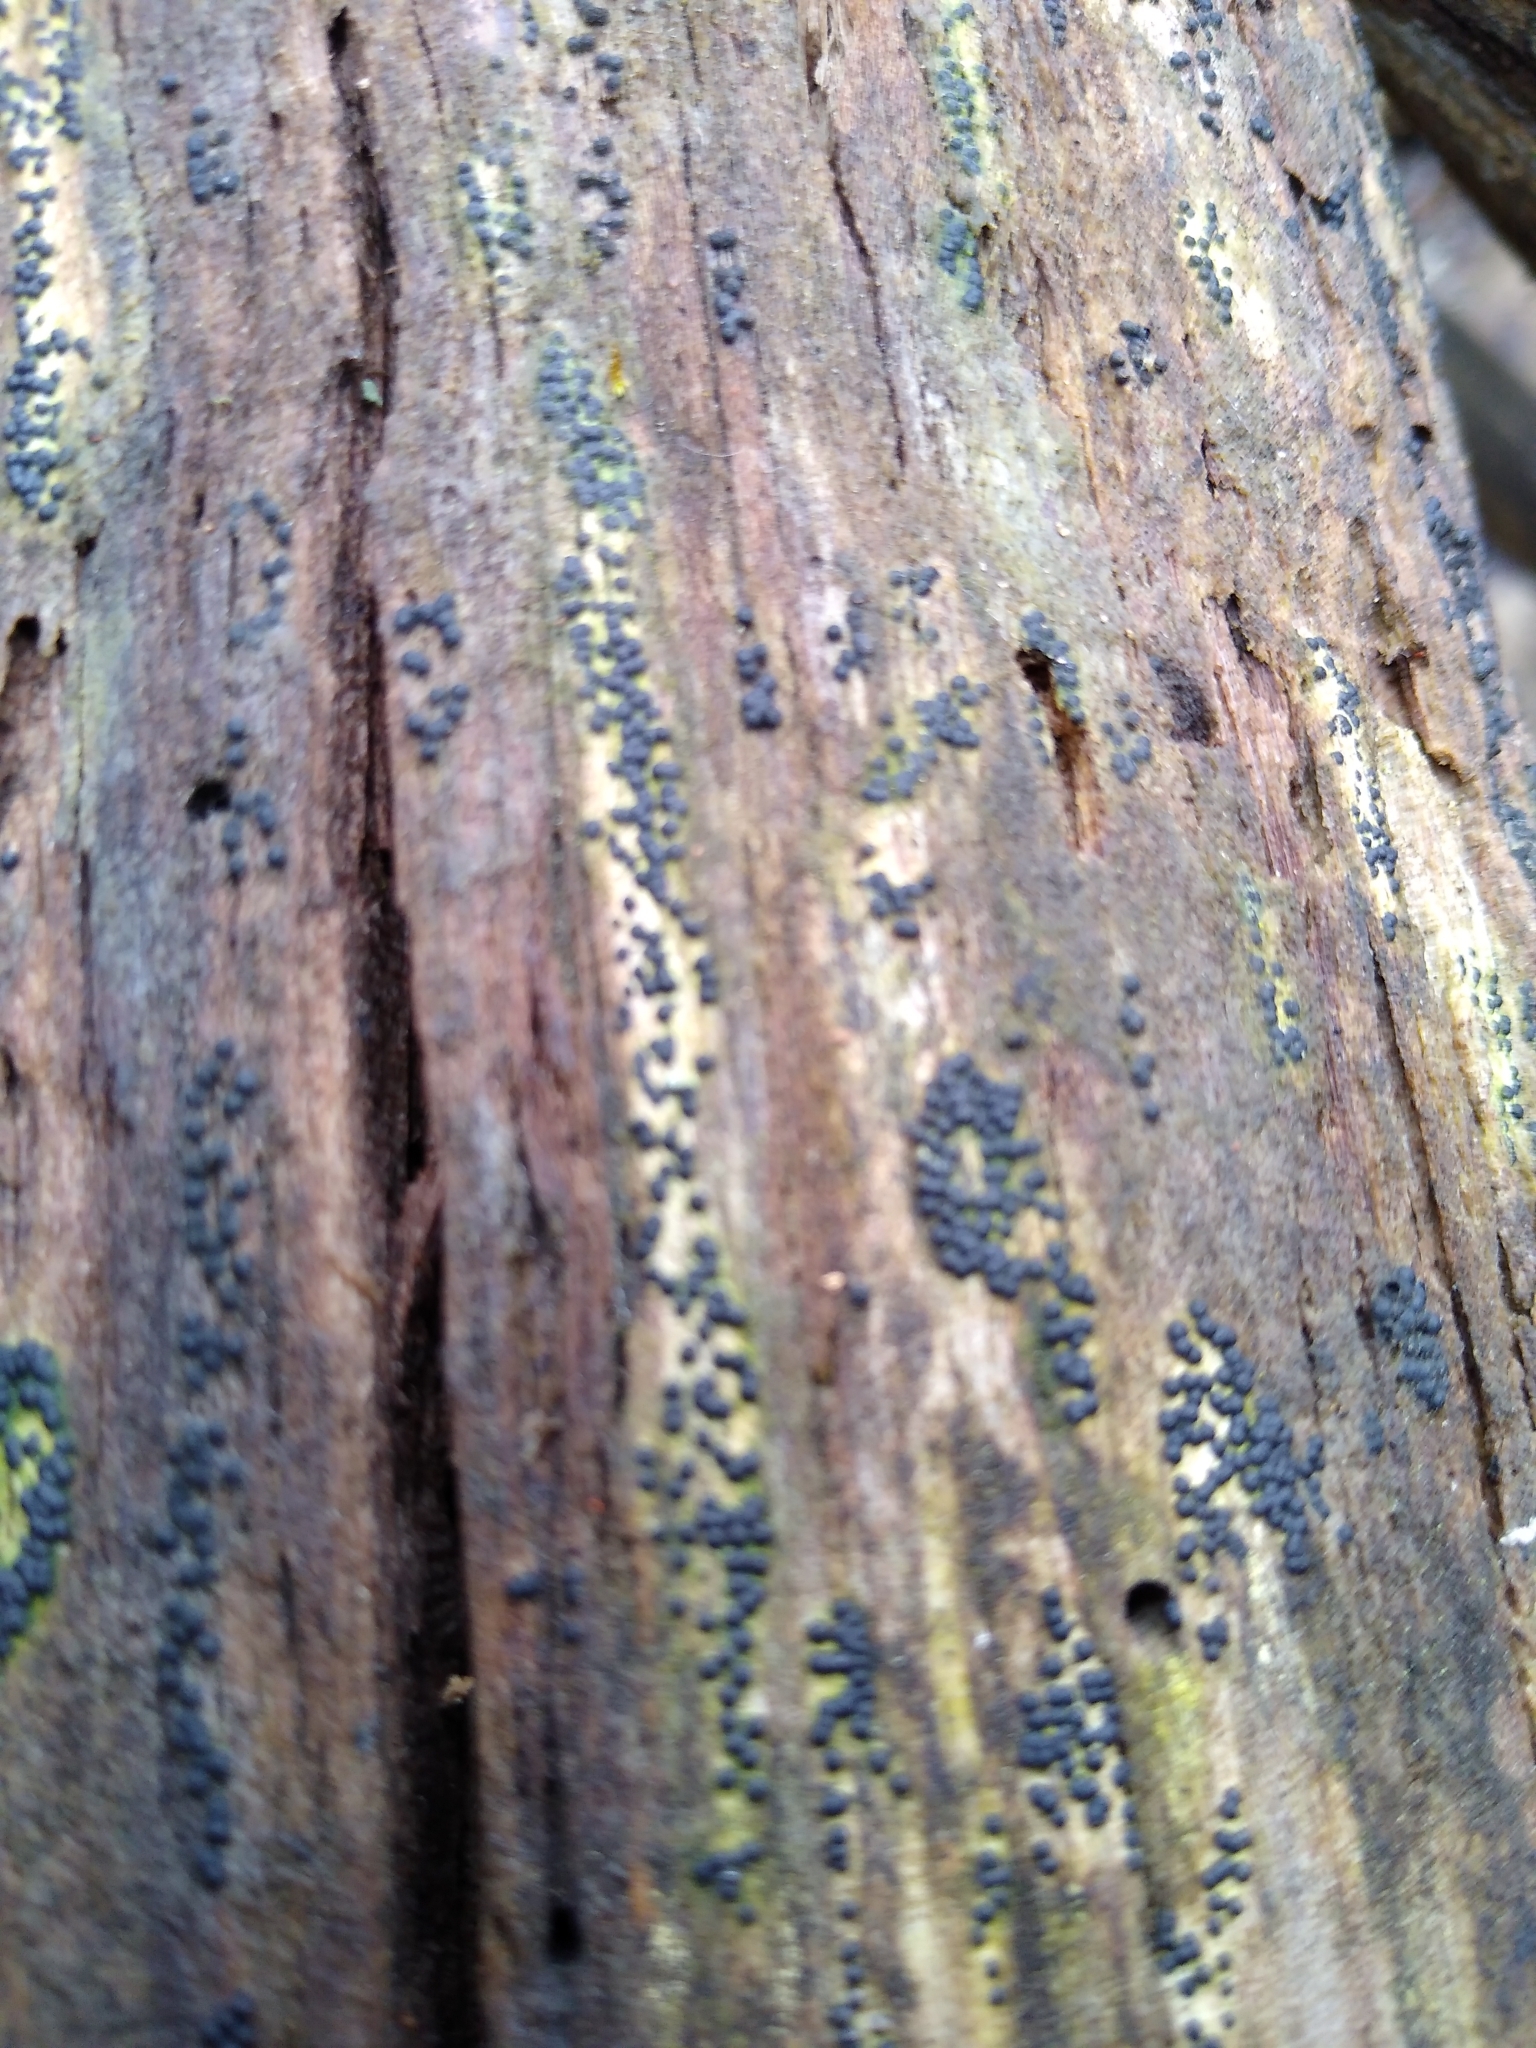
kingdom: Fungi
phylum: Ascomycota
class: Sordariomycetes
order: Xylariales
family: Xylariaceae
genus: Rosellinia
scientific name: Rosellinia subiculata
